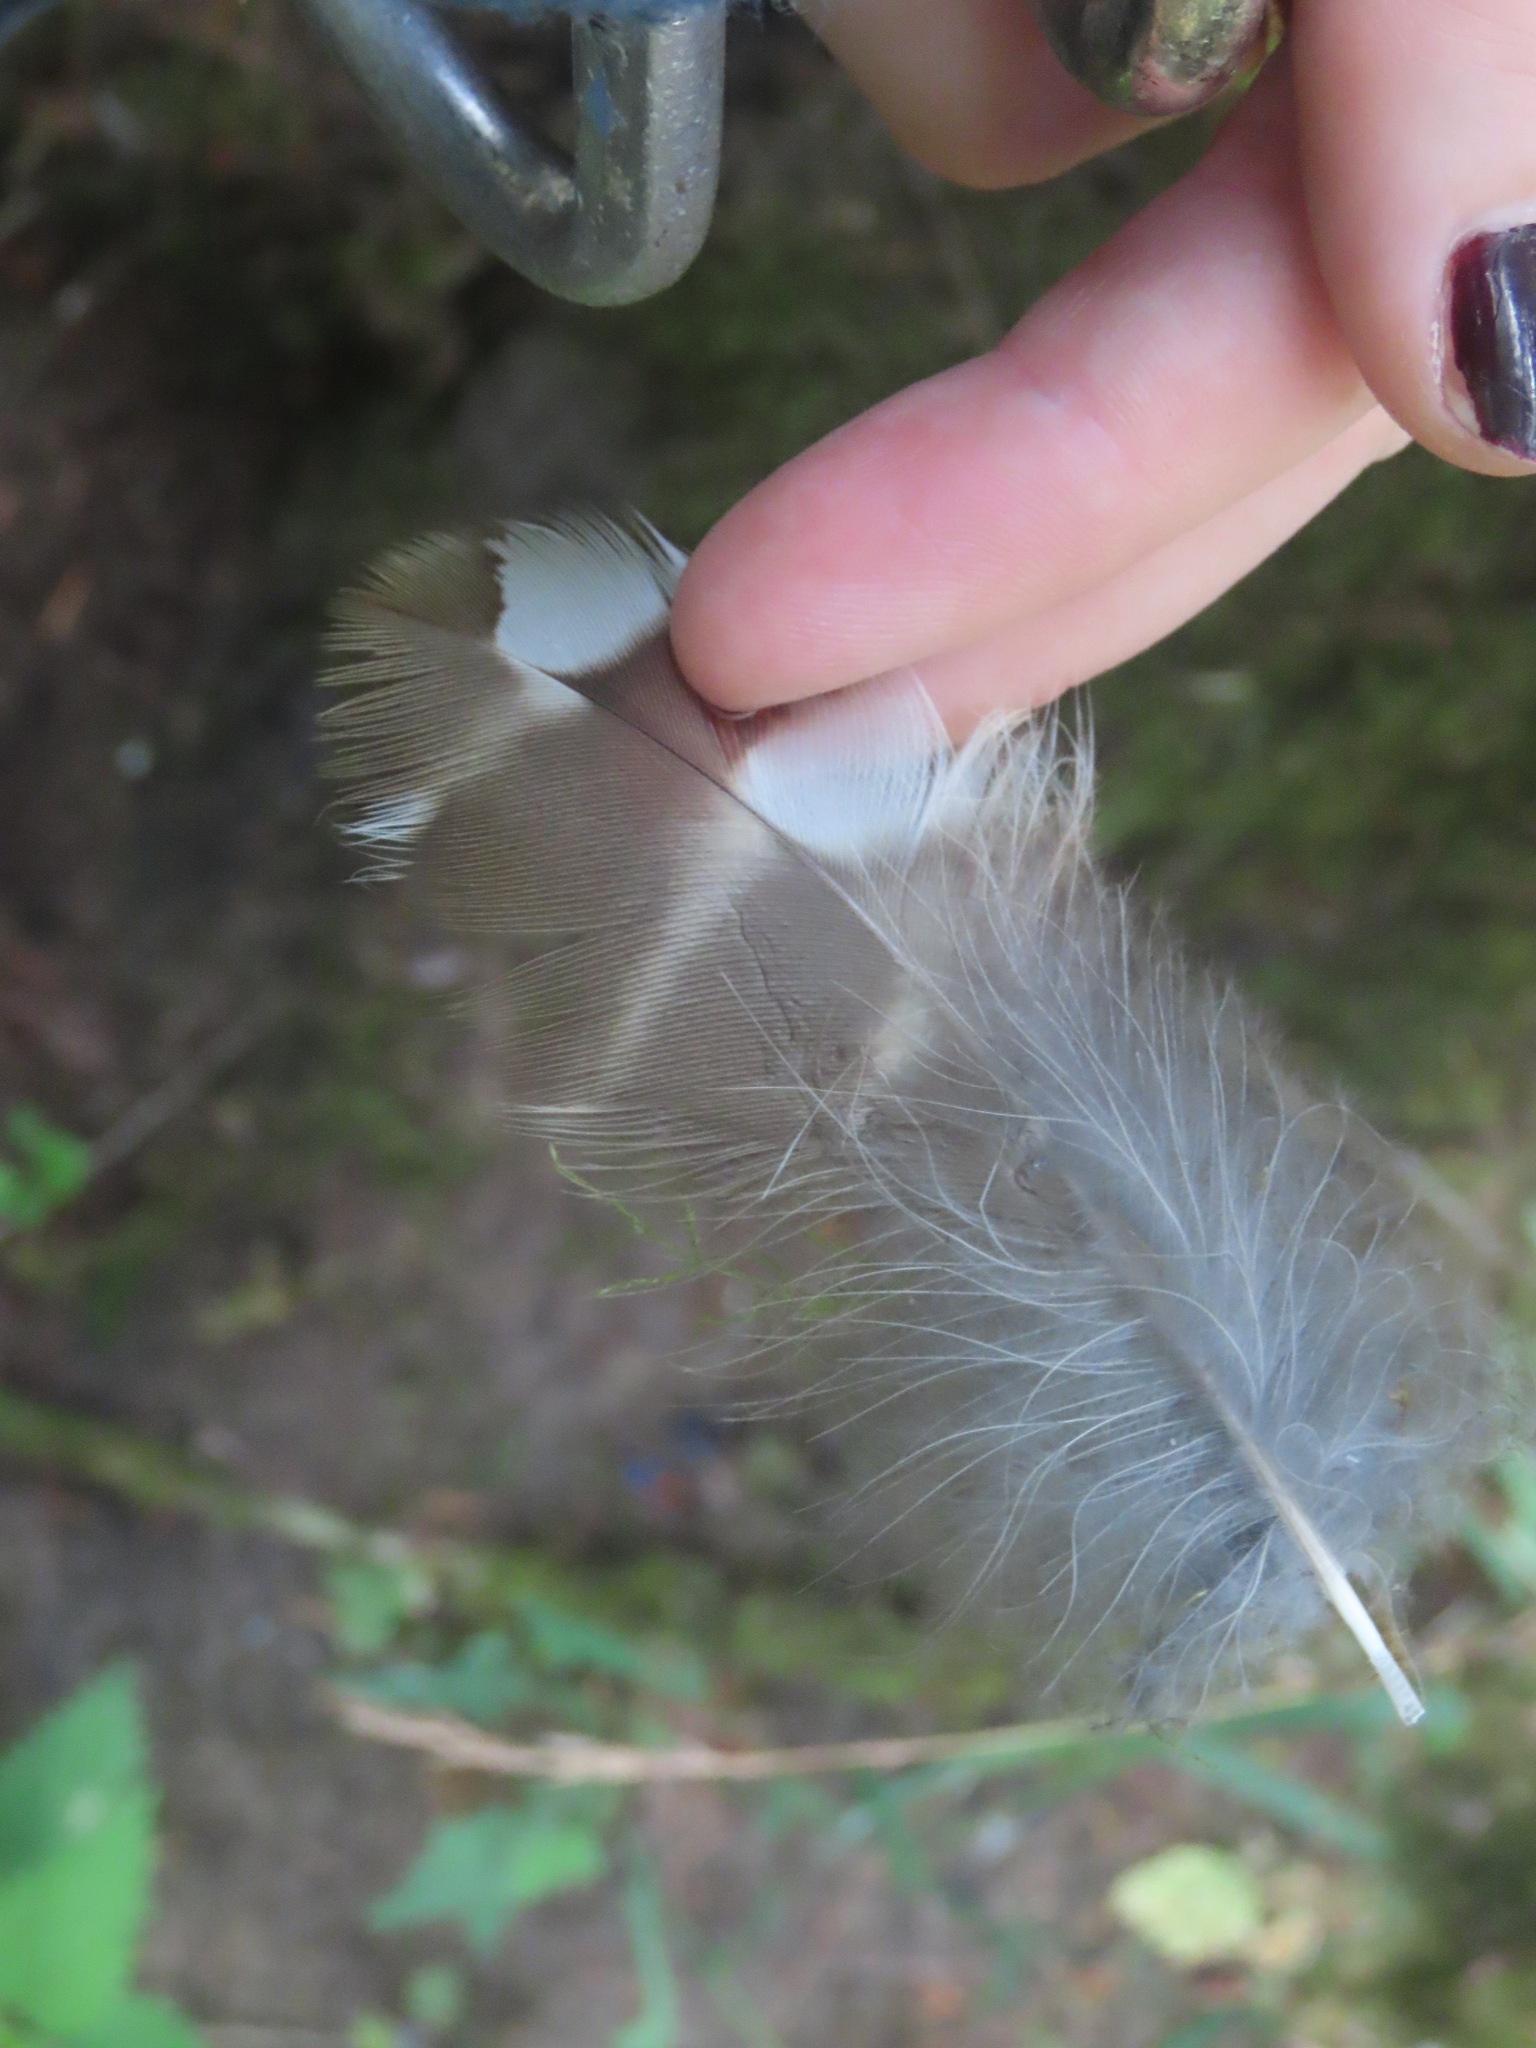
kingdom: Animalia
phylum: Chordata
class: Aves
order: Strigiformes
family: Strigidae
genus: Strix
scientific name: Strix varia
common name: Barred owl
